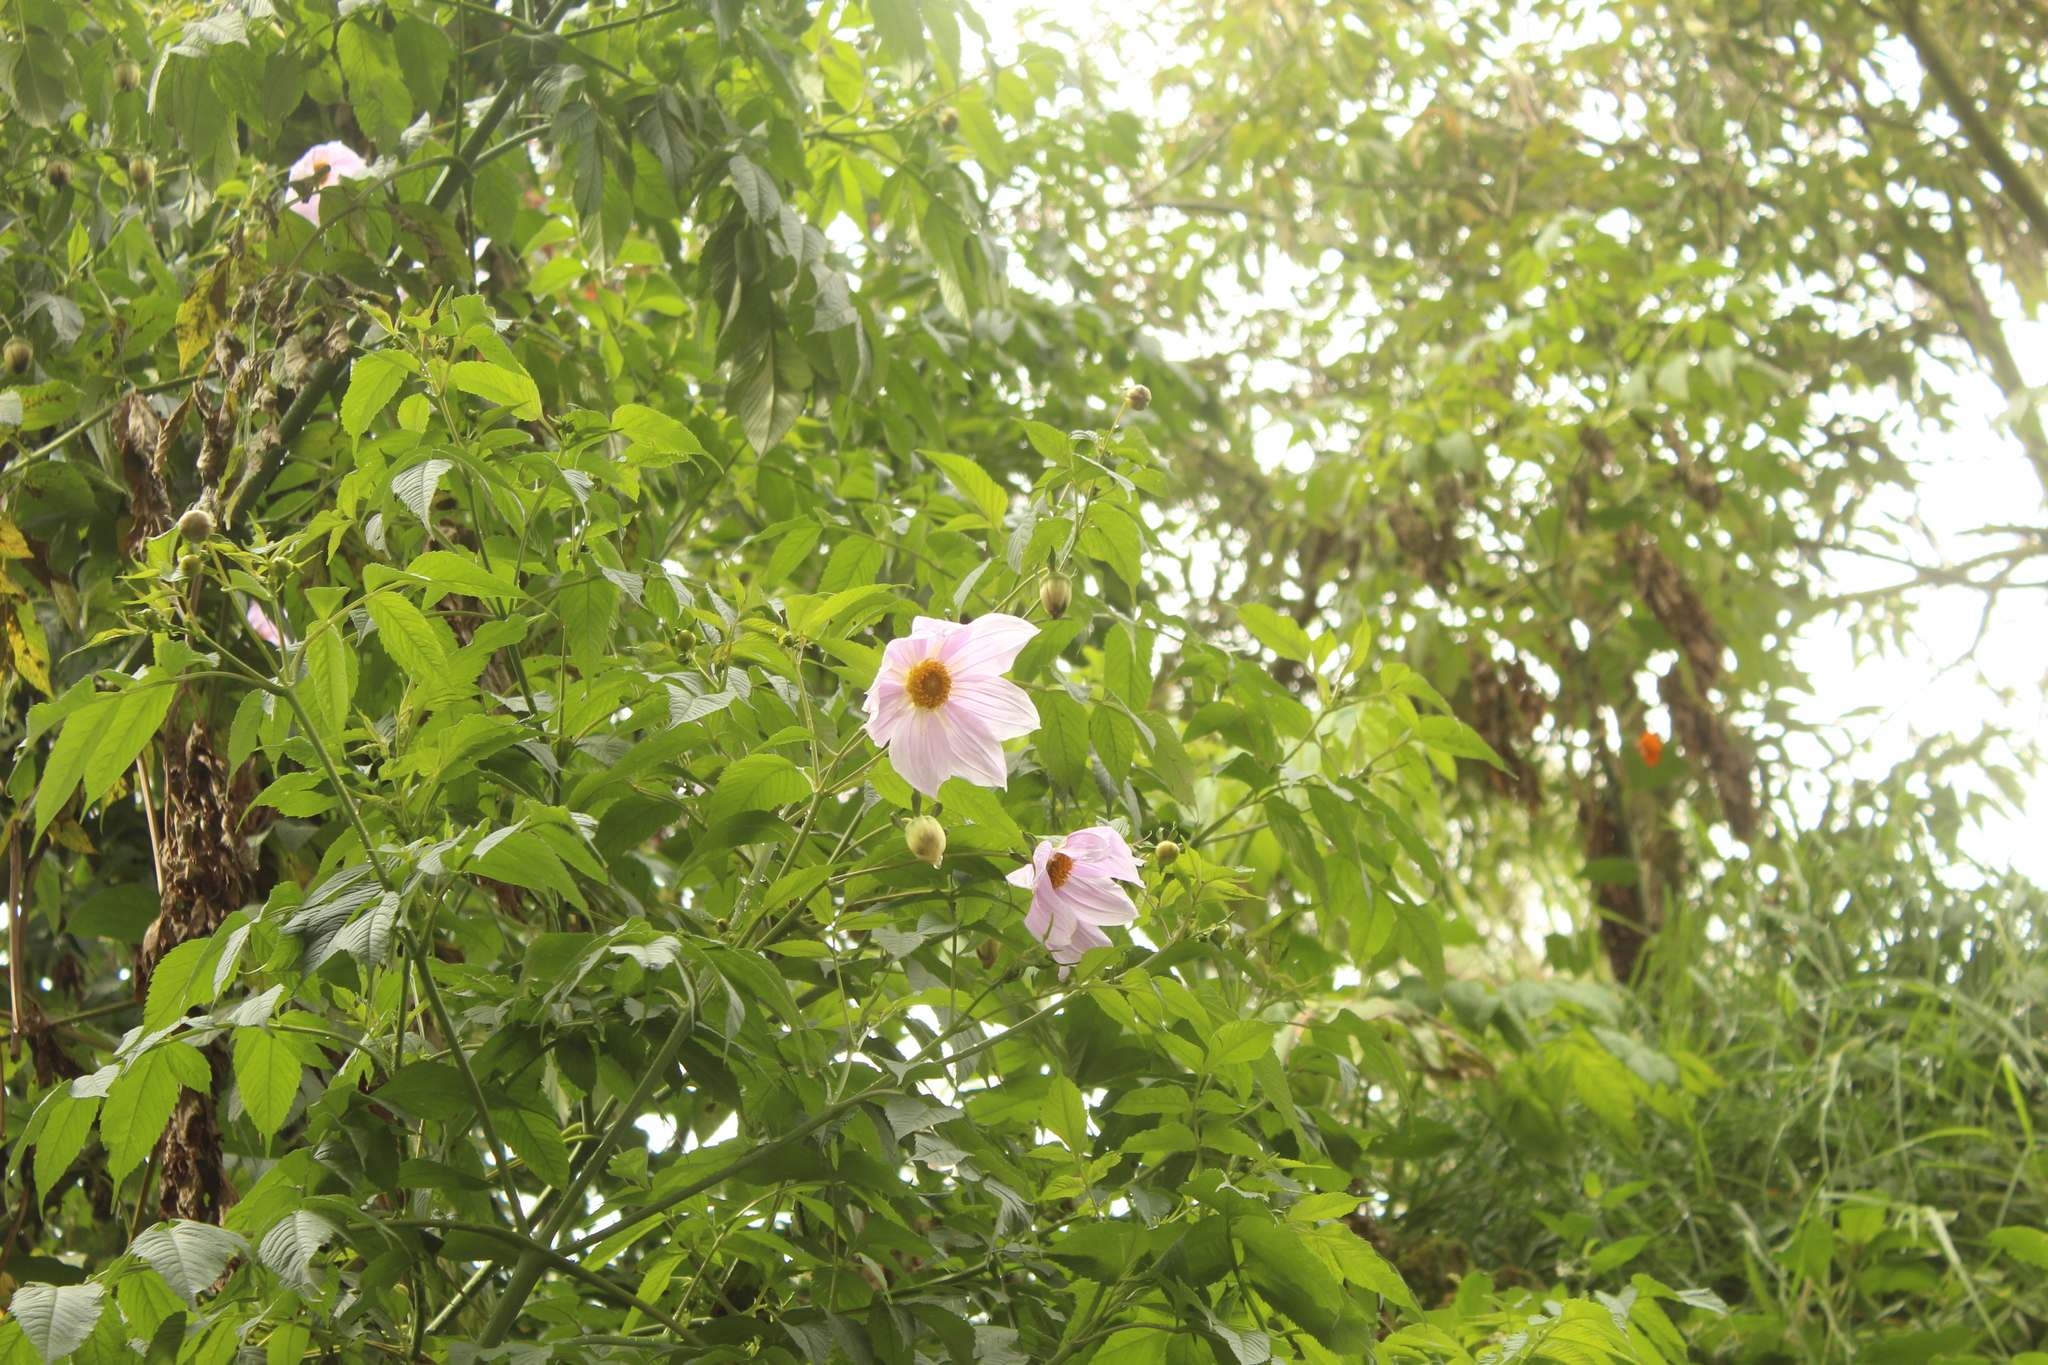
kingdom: Plantae
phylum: Tracheophyta
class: Magnoliopsida
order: Asterales
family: Asteraceae
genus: Dahlia
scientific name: Dahlia imperialis
